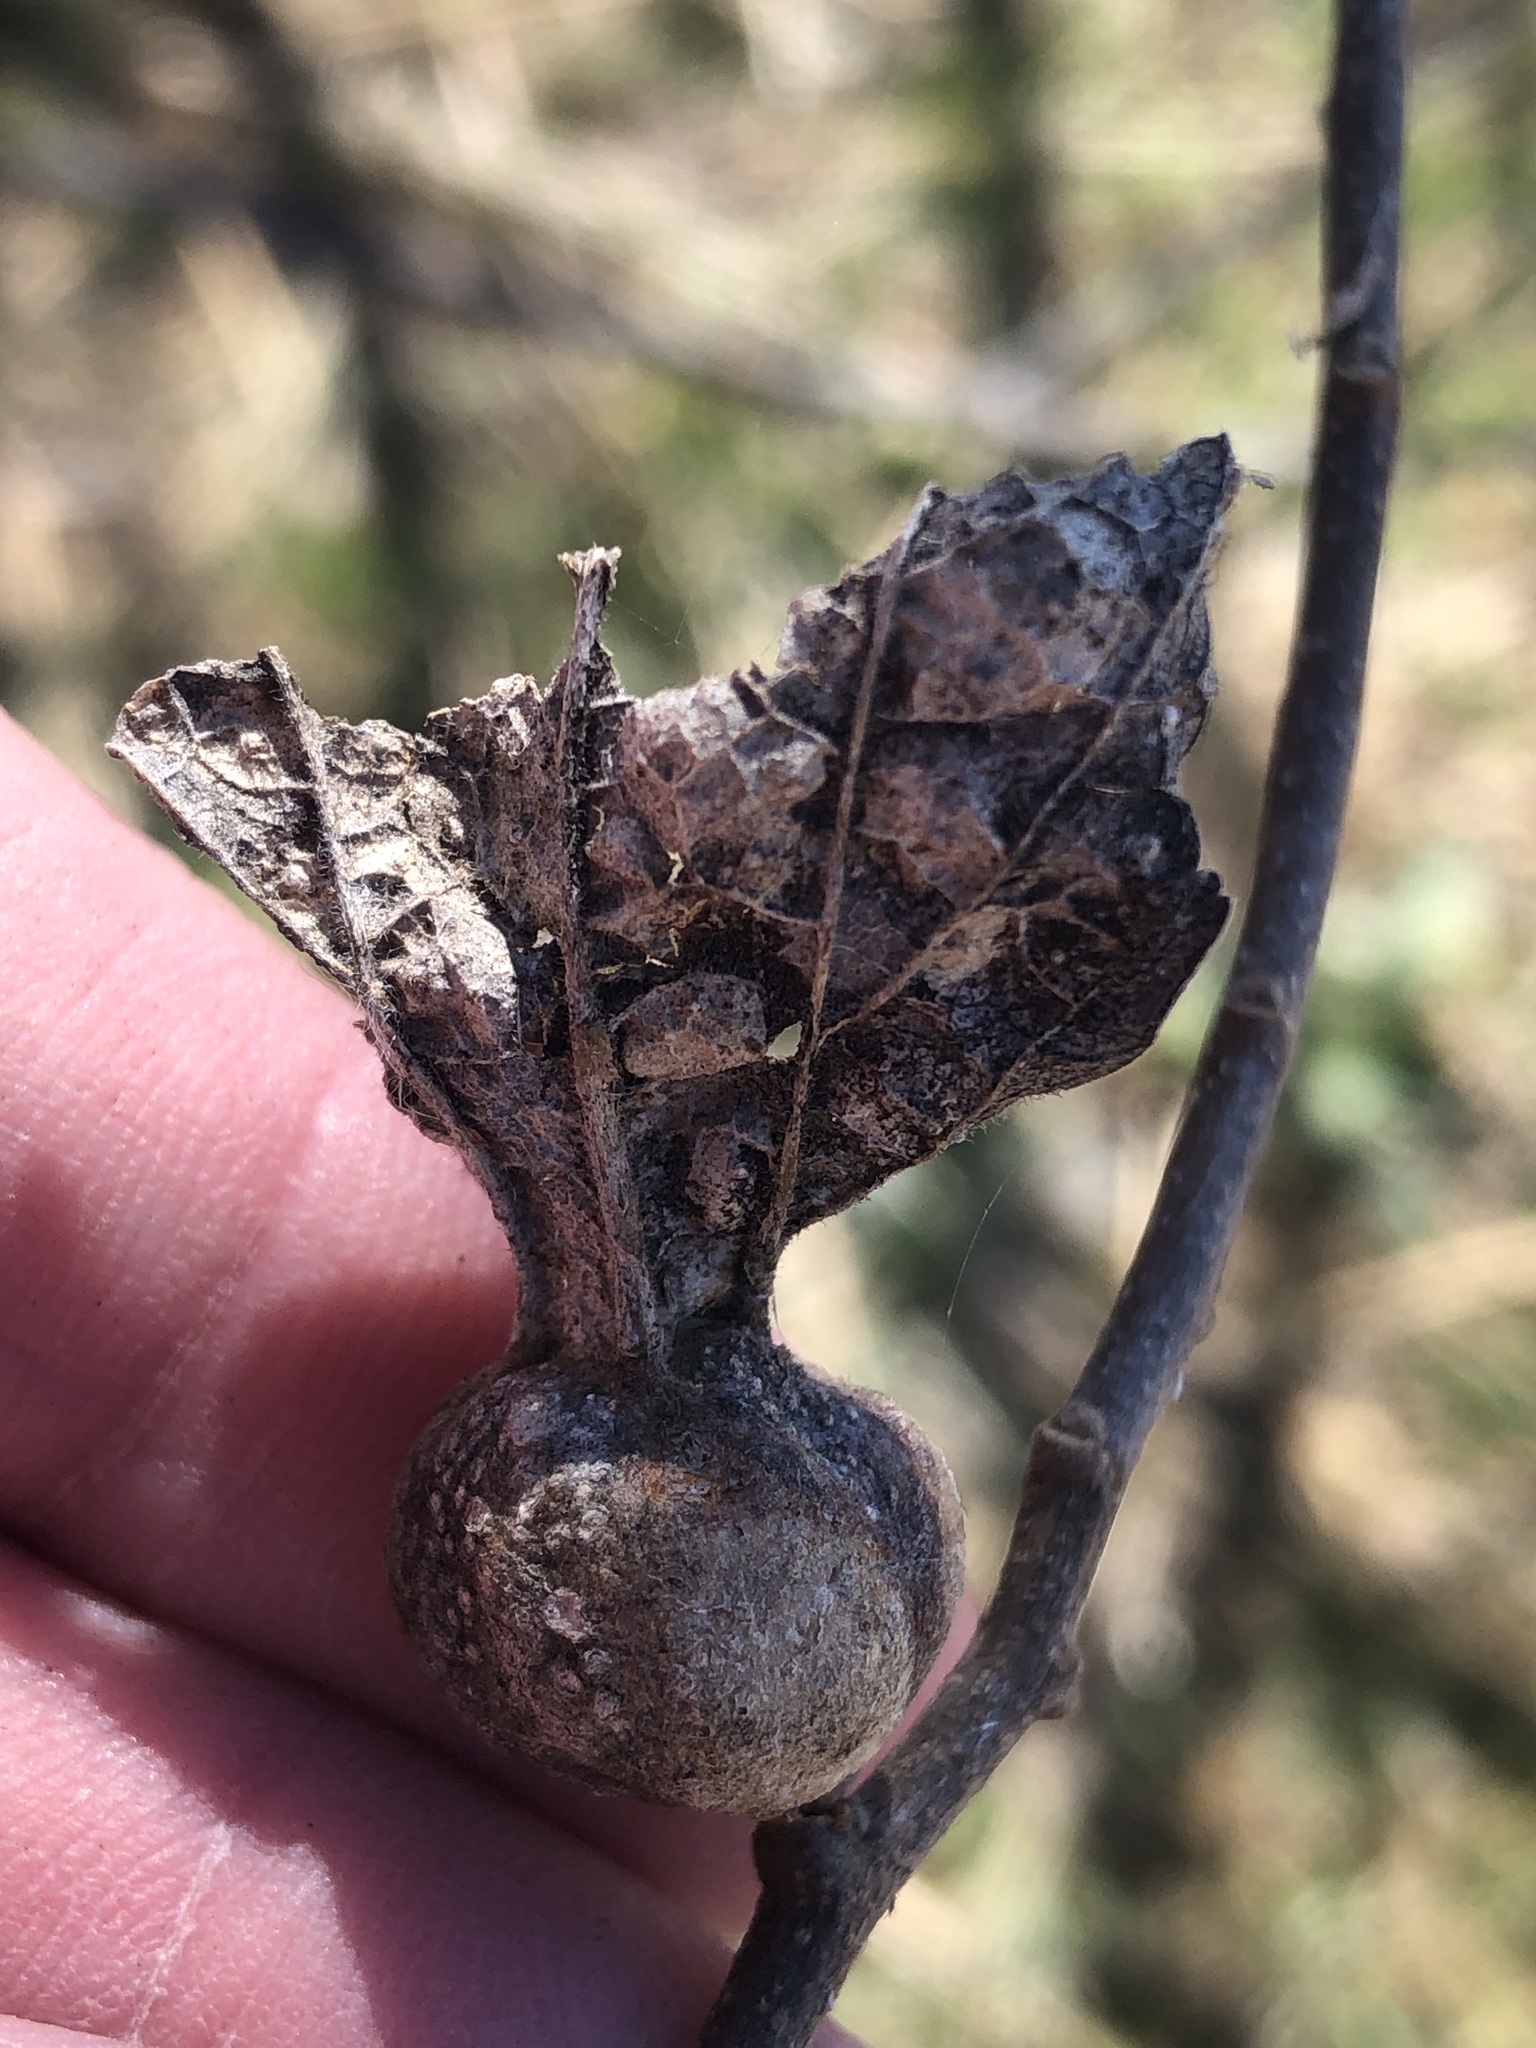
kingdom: Animalia
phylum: Arthropoda
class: Insecta
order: Hemiptera
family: Aphalaridae
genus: Pachypsylla
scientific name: Pachypsylla venusta
